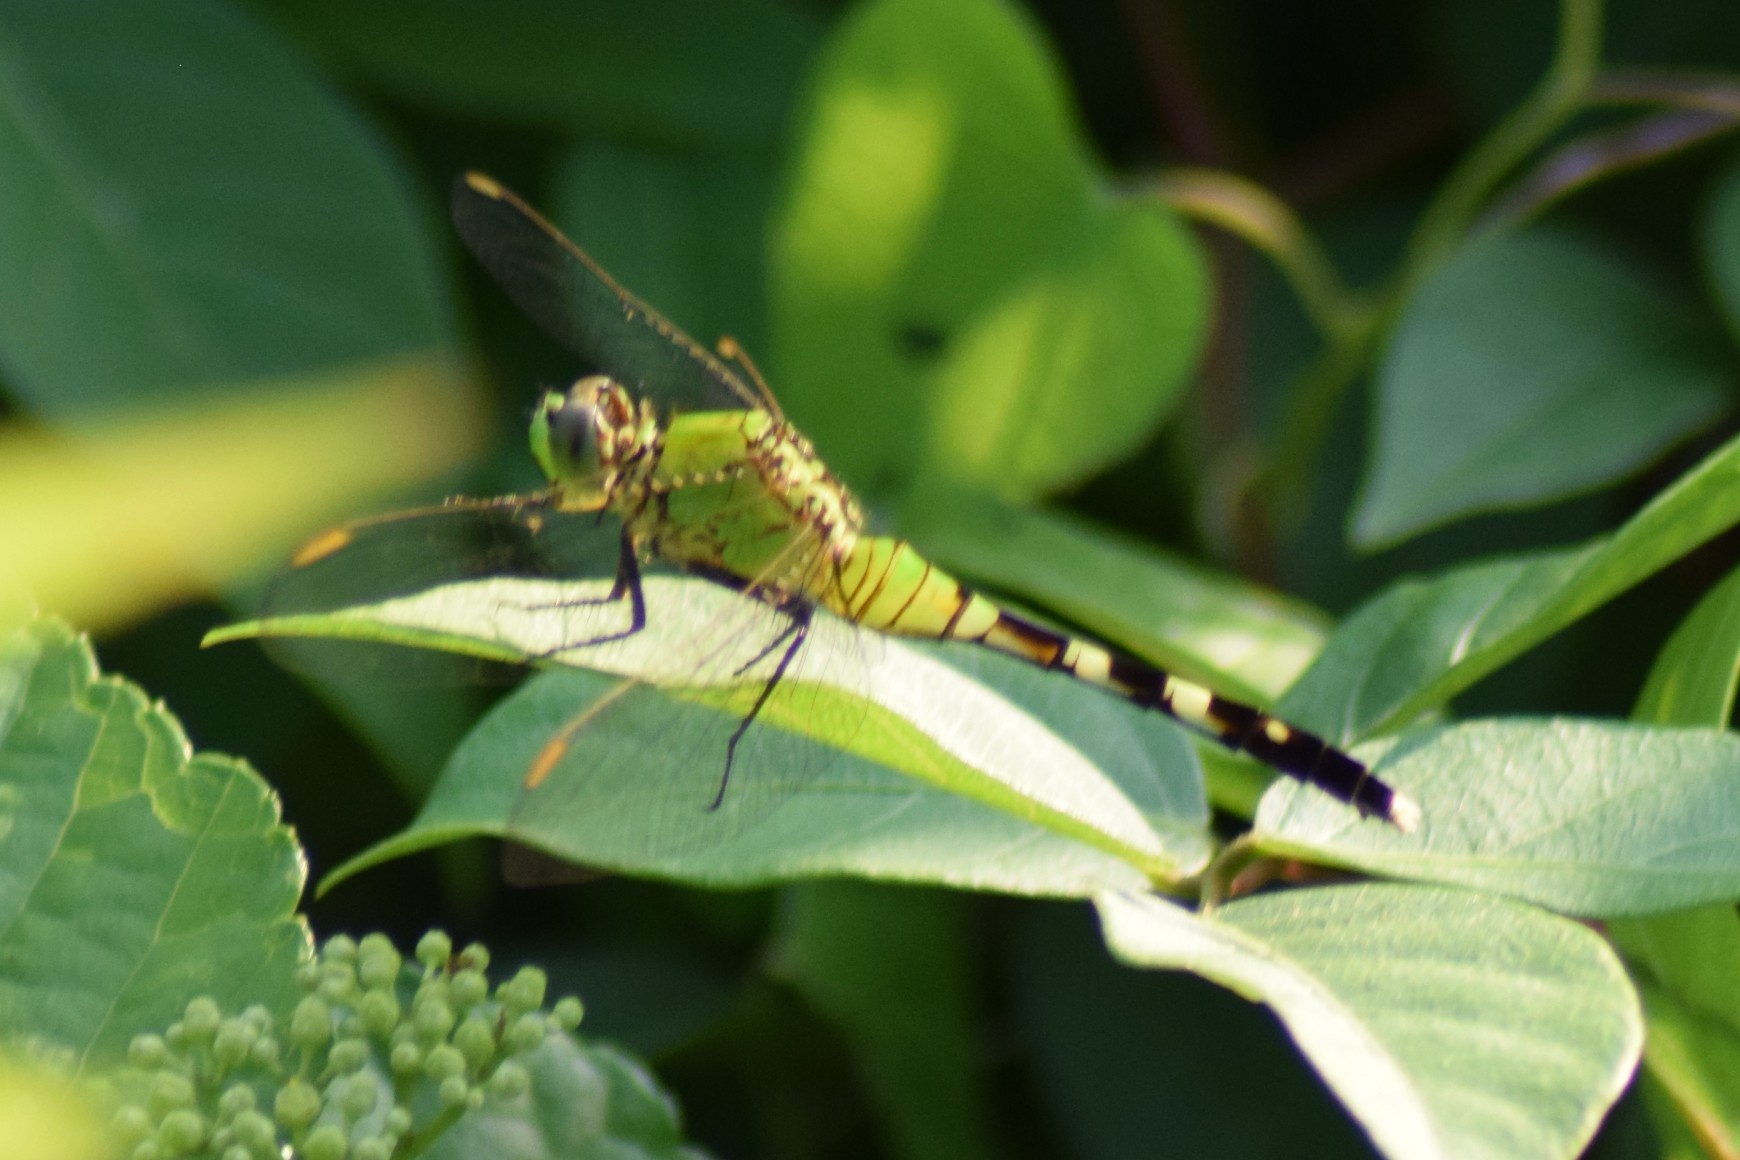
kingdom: Animalia
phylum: Arthropoda
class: Insecta
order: Odonata
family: Libellulidae
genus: Erythemis
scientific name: Erythemis simplicicollis
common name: Eastern pondhawk
